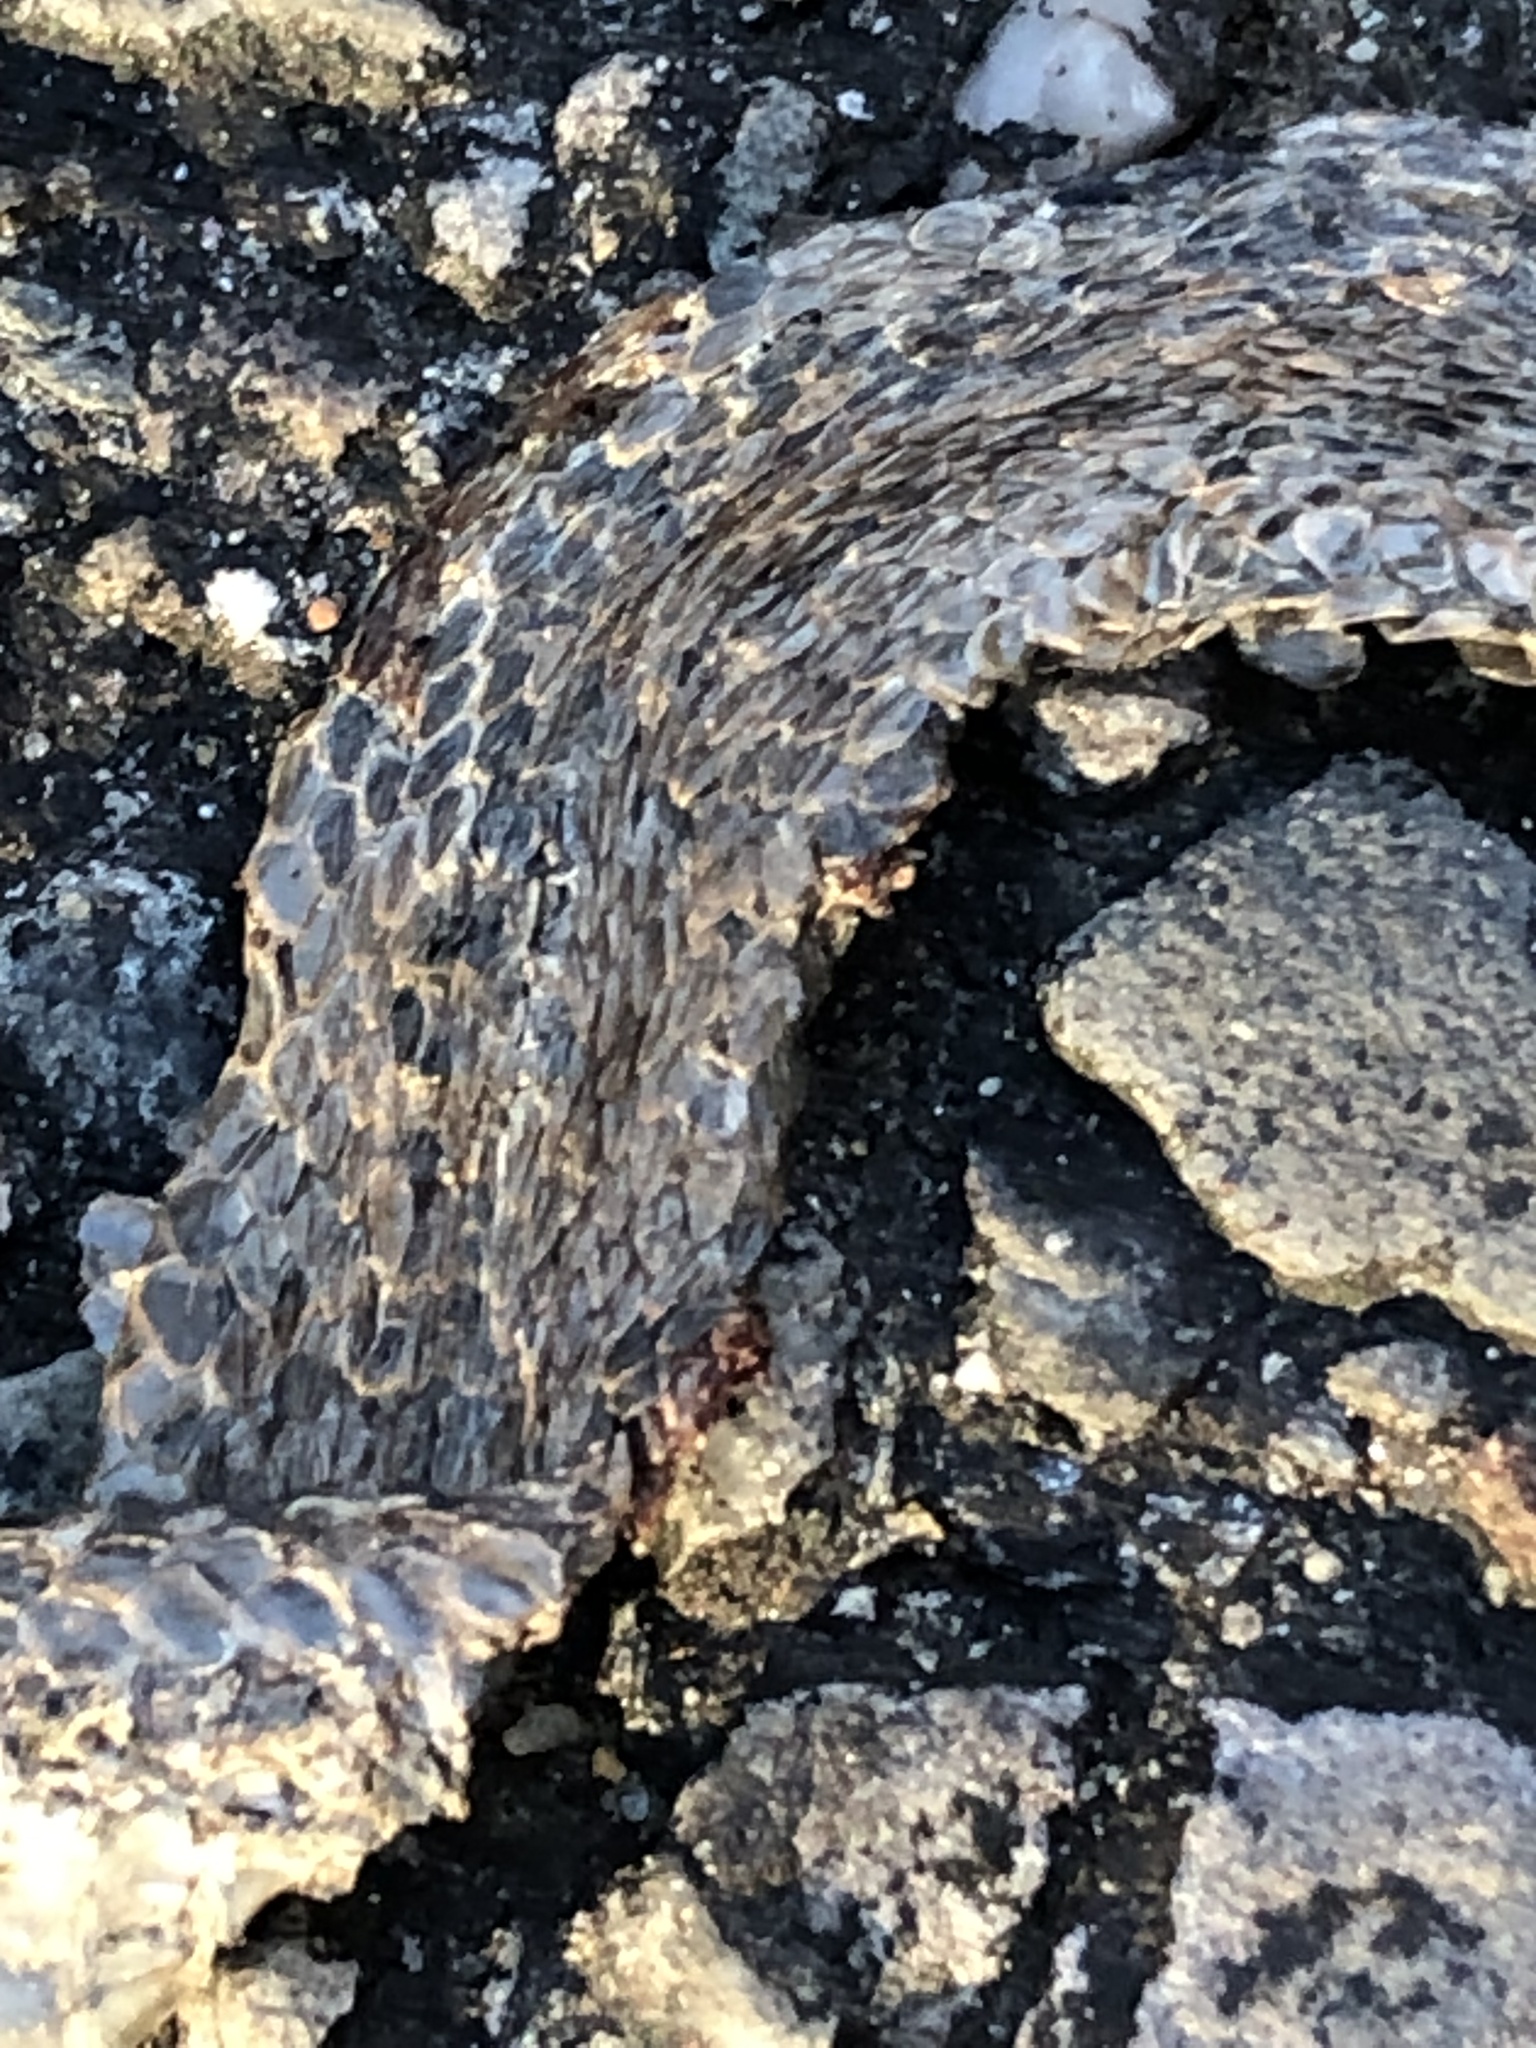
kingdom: Animalia
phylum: Chordata
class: Squamata
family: Colubridae
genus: Storeria
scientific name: Storeria dekayi
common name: (dekay’s) brown snake
